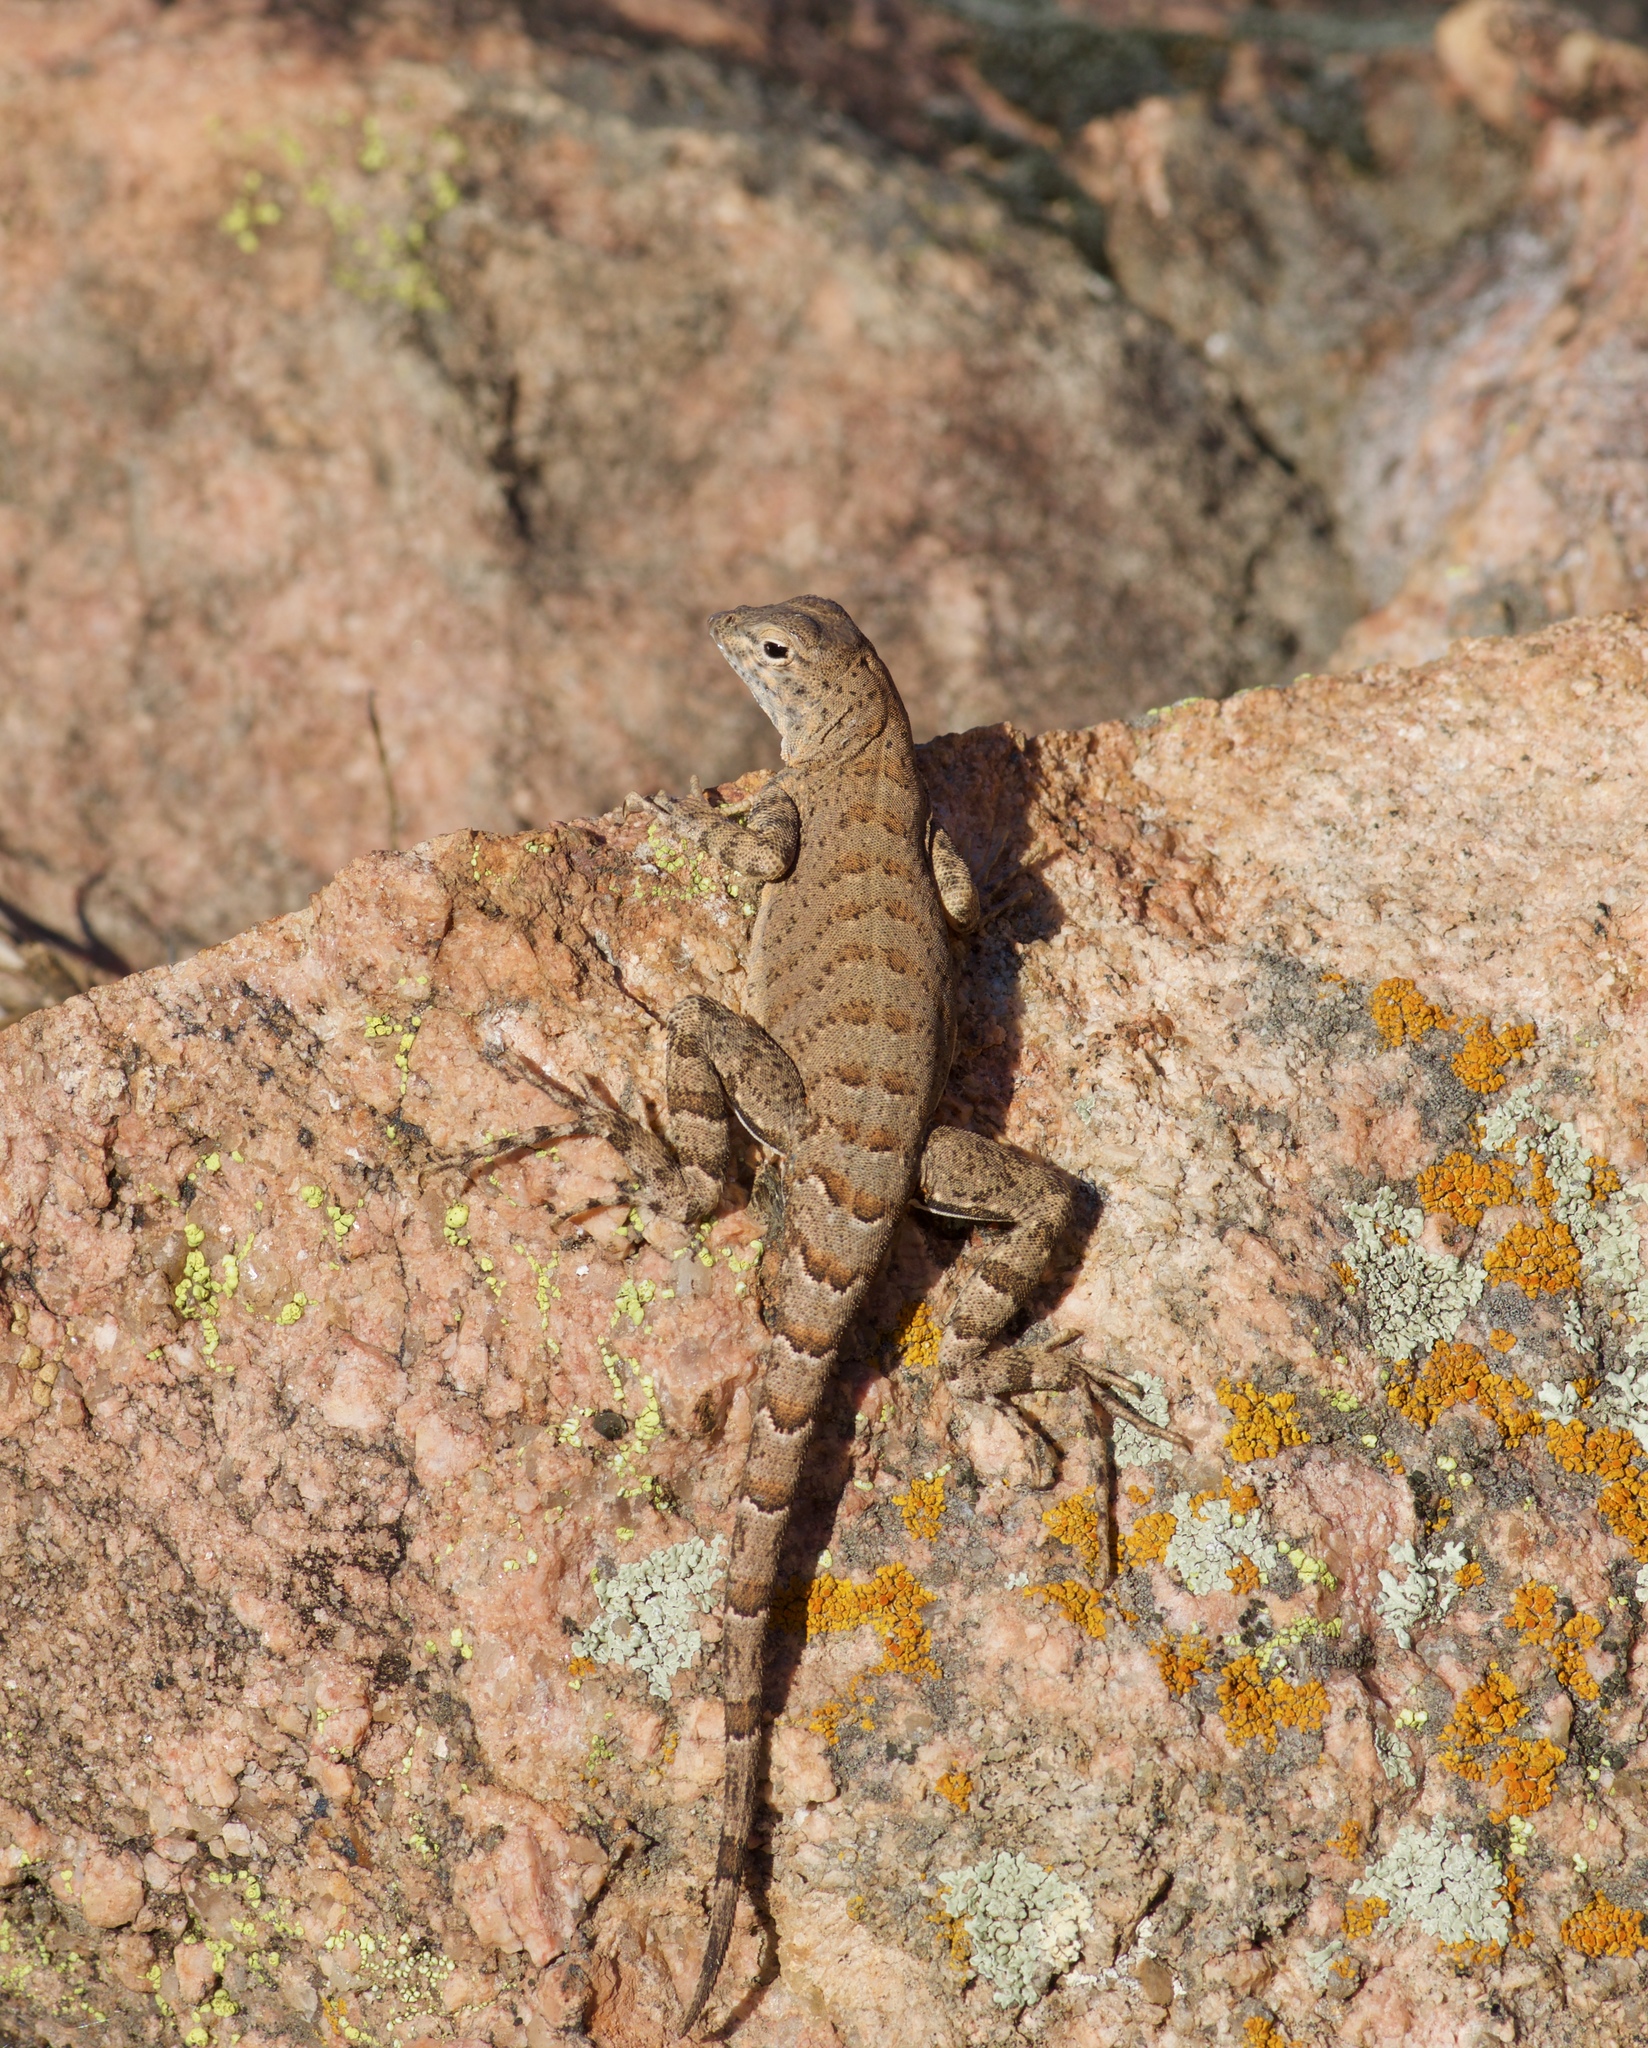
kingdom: Animalia
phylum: Chordata
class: Squamata
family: Phrynosomatidae
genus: Cophosaurus
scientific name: Cophosaurus texanus
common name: Greater earless lizard
